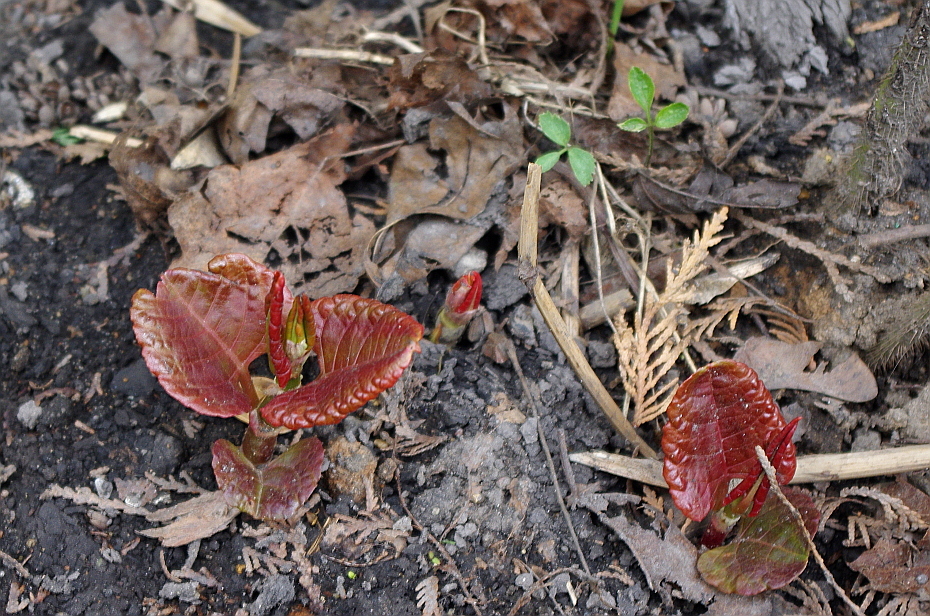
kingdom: Plantae
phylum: Tracheophyta
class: Magnoliopsida
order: Caryophyllales
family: Polygonaceae
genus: Reynoutria
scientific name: Reynoutria bohemica
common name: Bohemian knotweed
